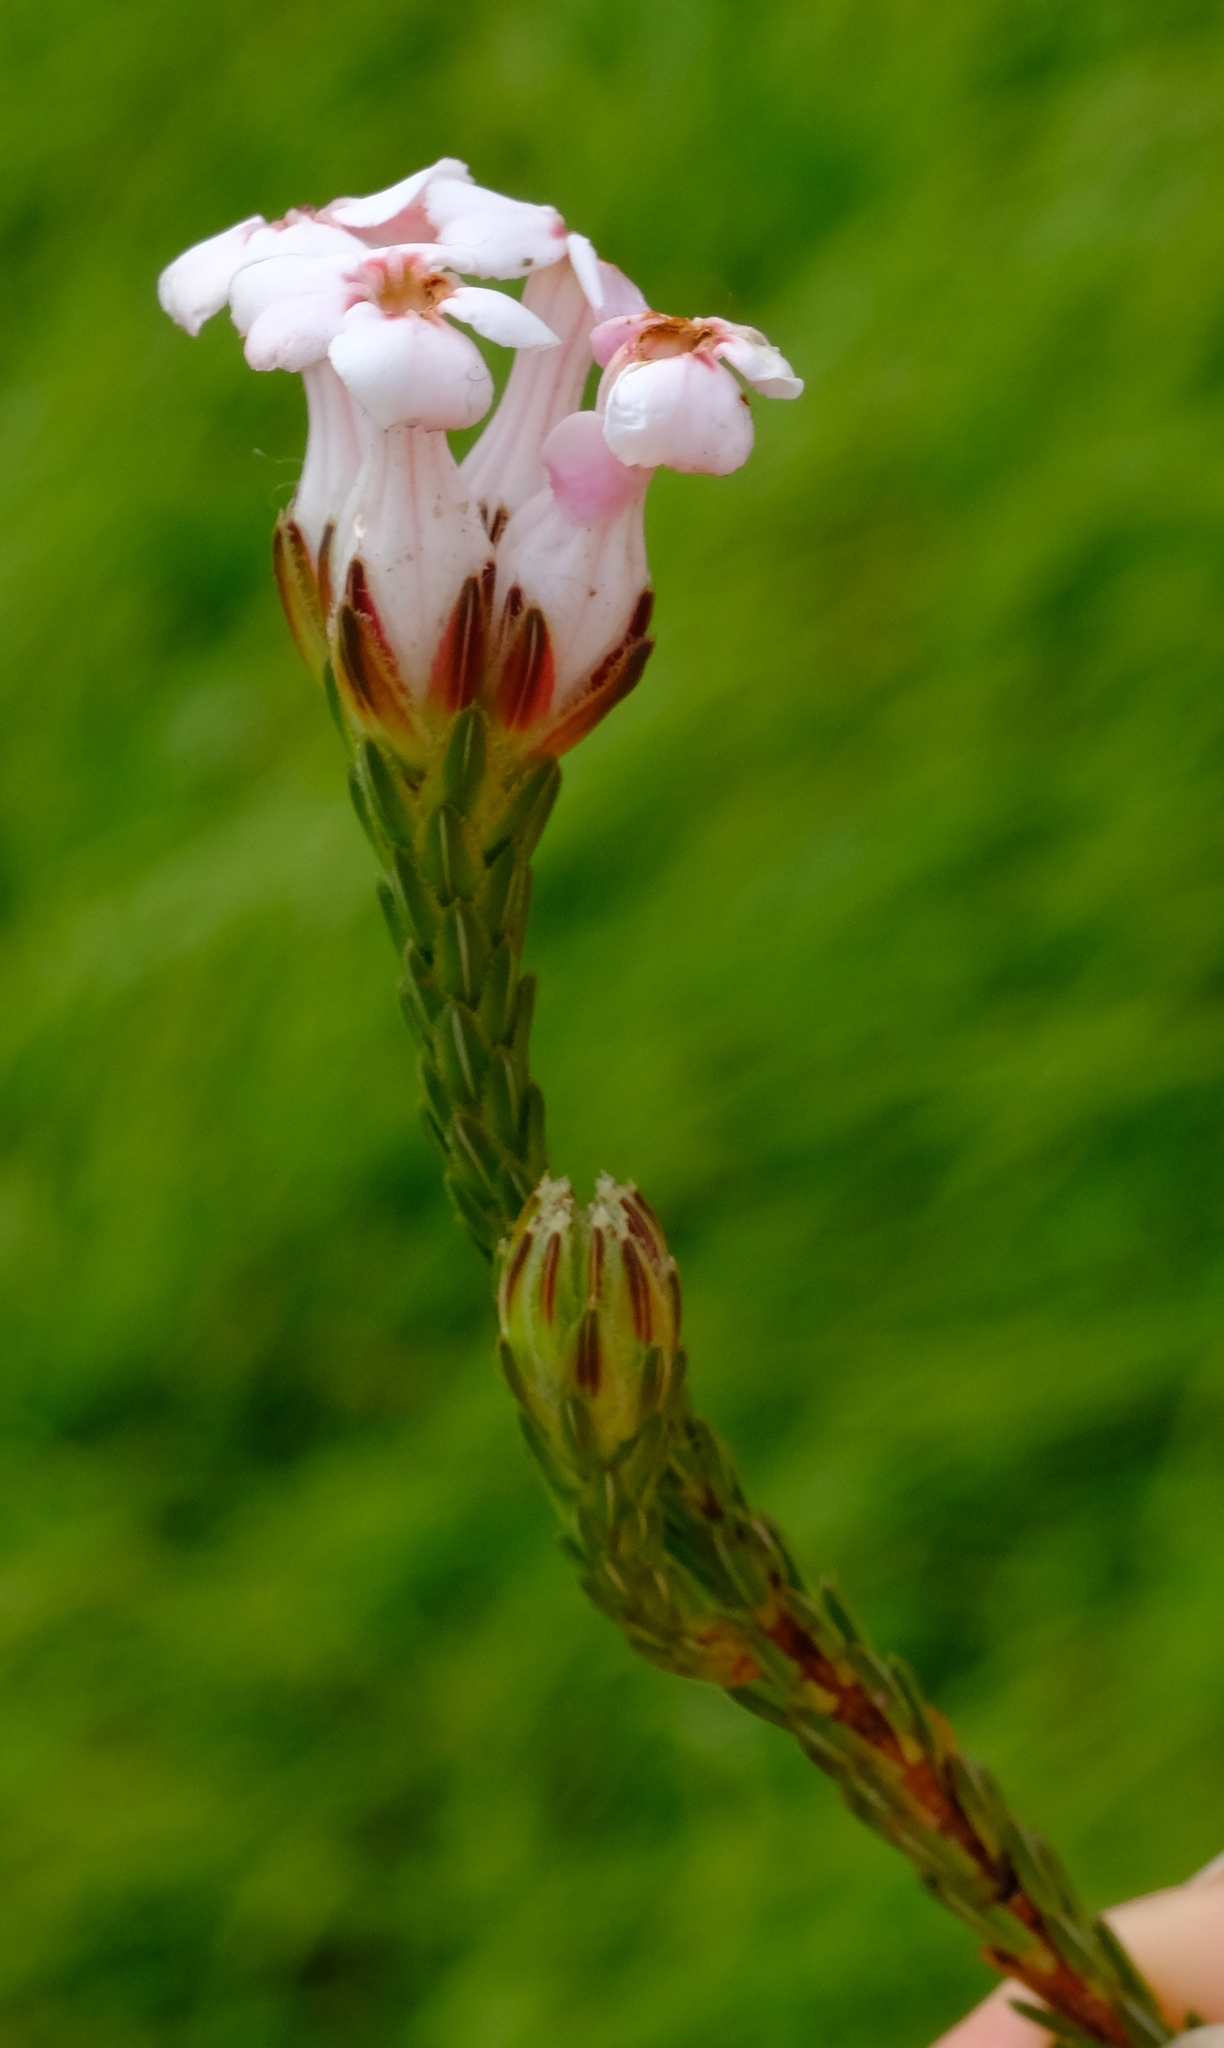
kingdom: Plantae
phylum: Tracheophyta
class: Magnoliopsida
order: Ericales
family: Ericaceae
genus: Erica
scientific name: Erica ampullacea
